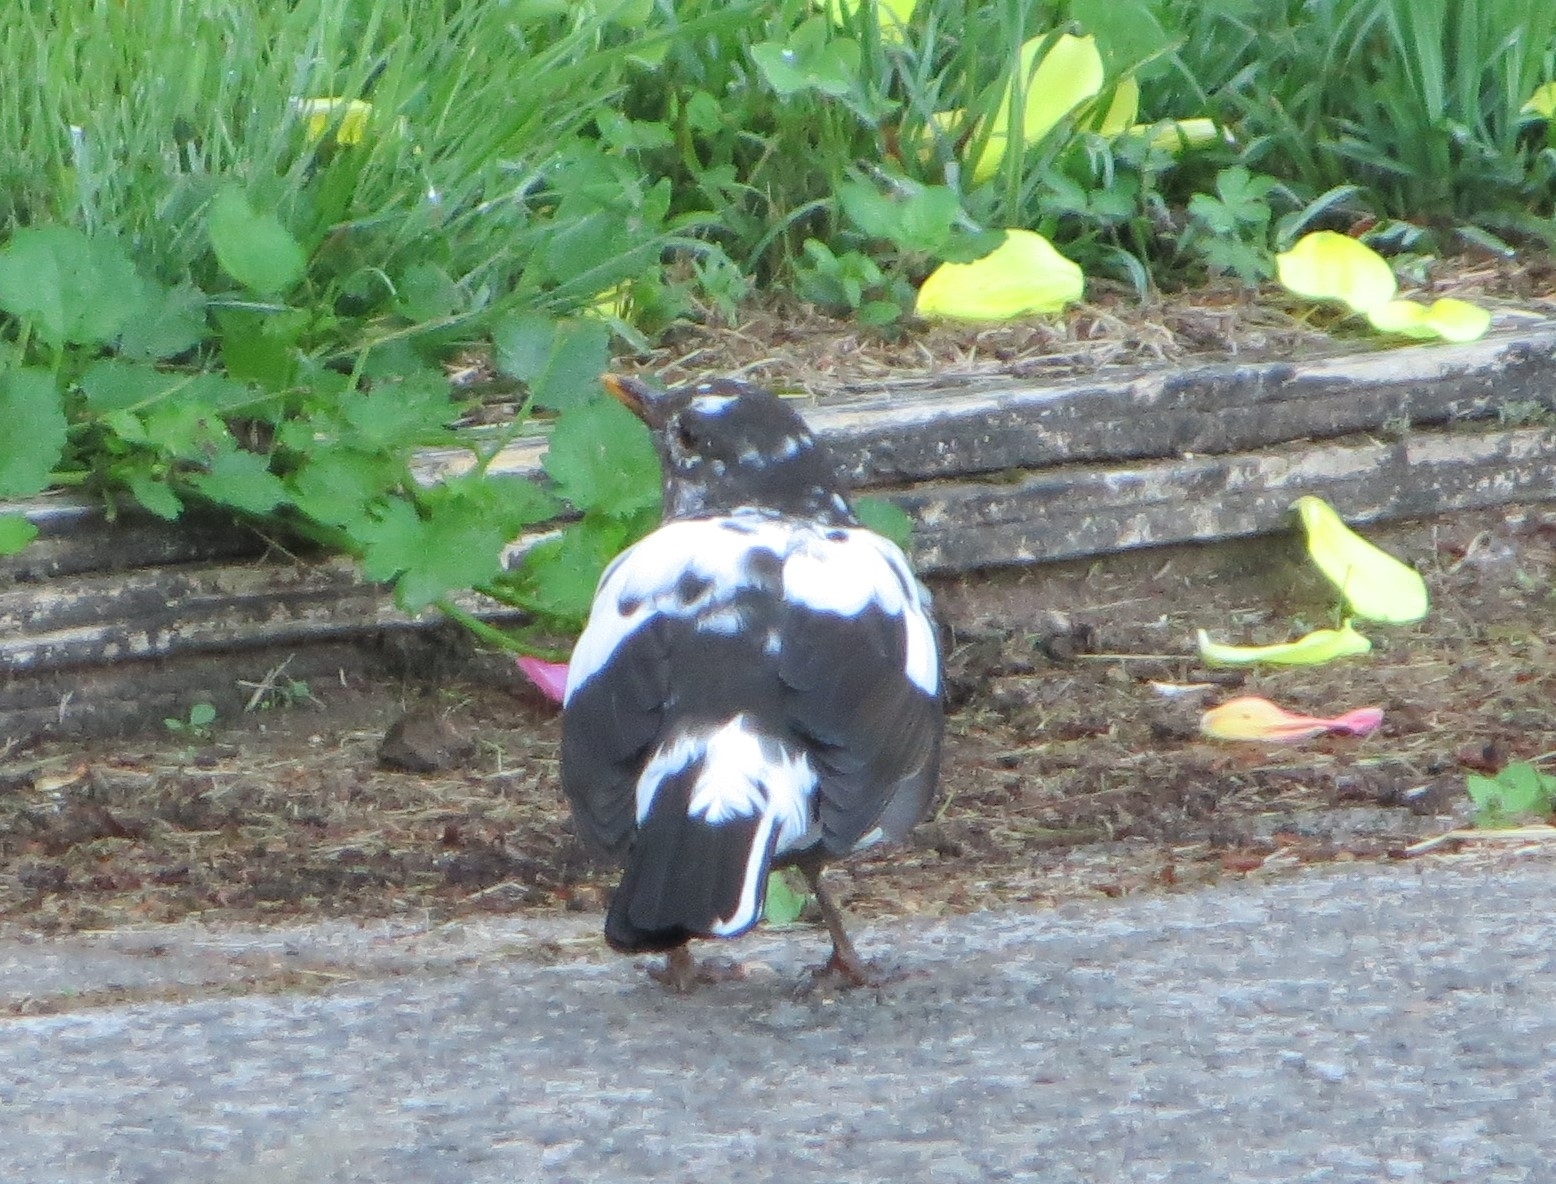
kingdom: Animalia
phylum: Chordata
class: Aves
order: Passeriformes
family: Turdidae
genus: Turdus
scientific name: Turdus merula
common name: Common blackbird
